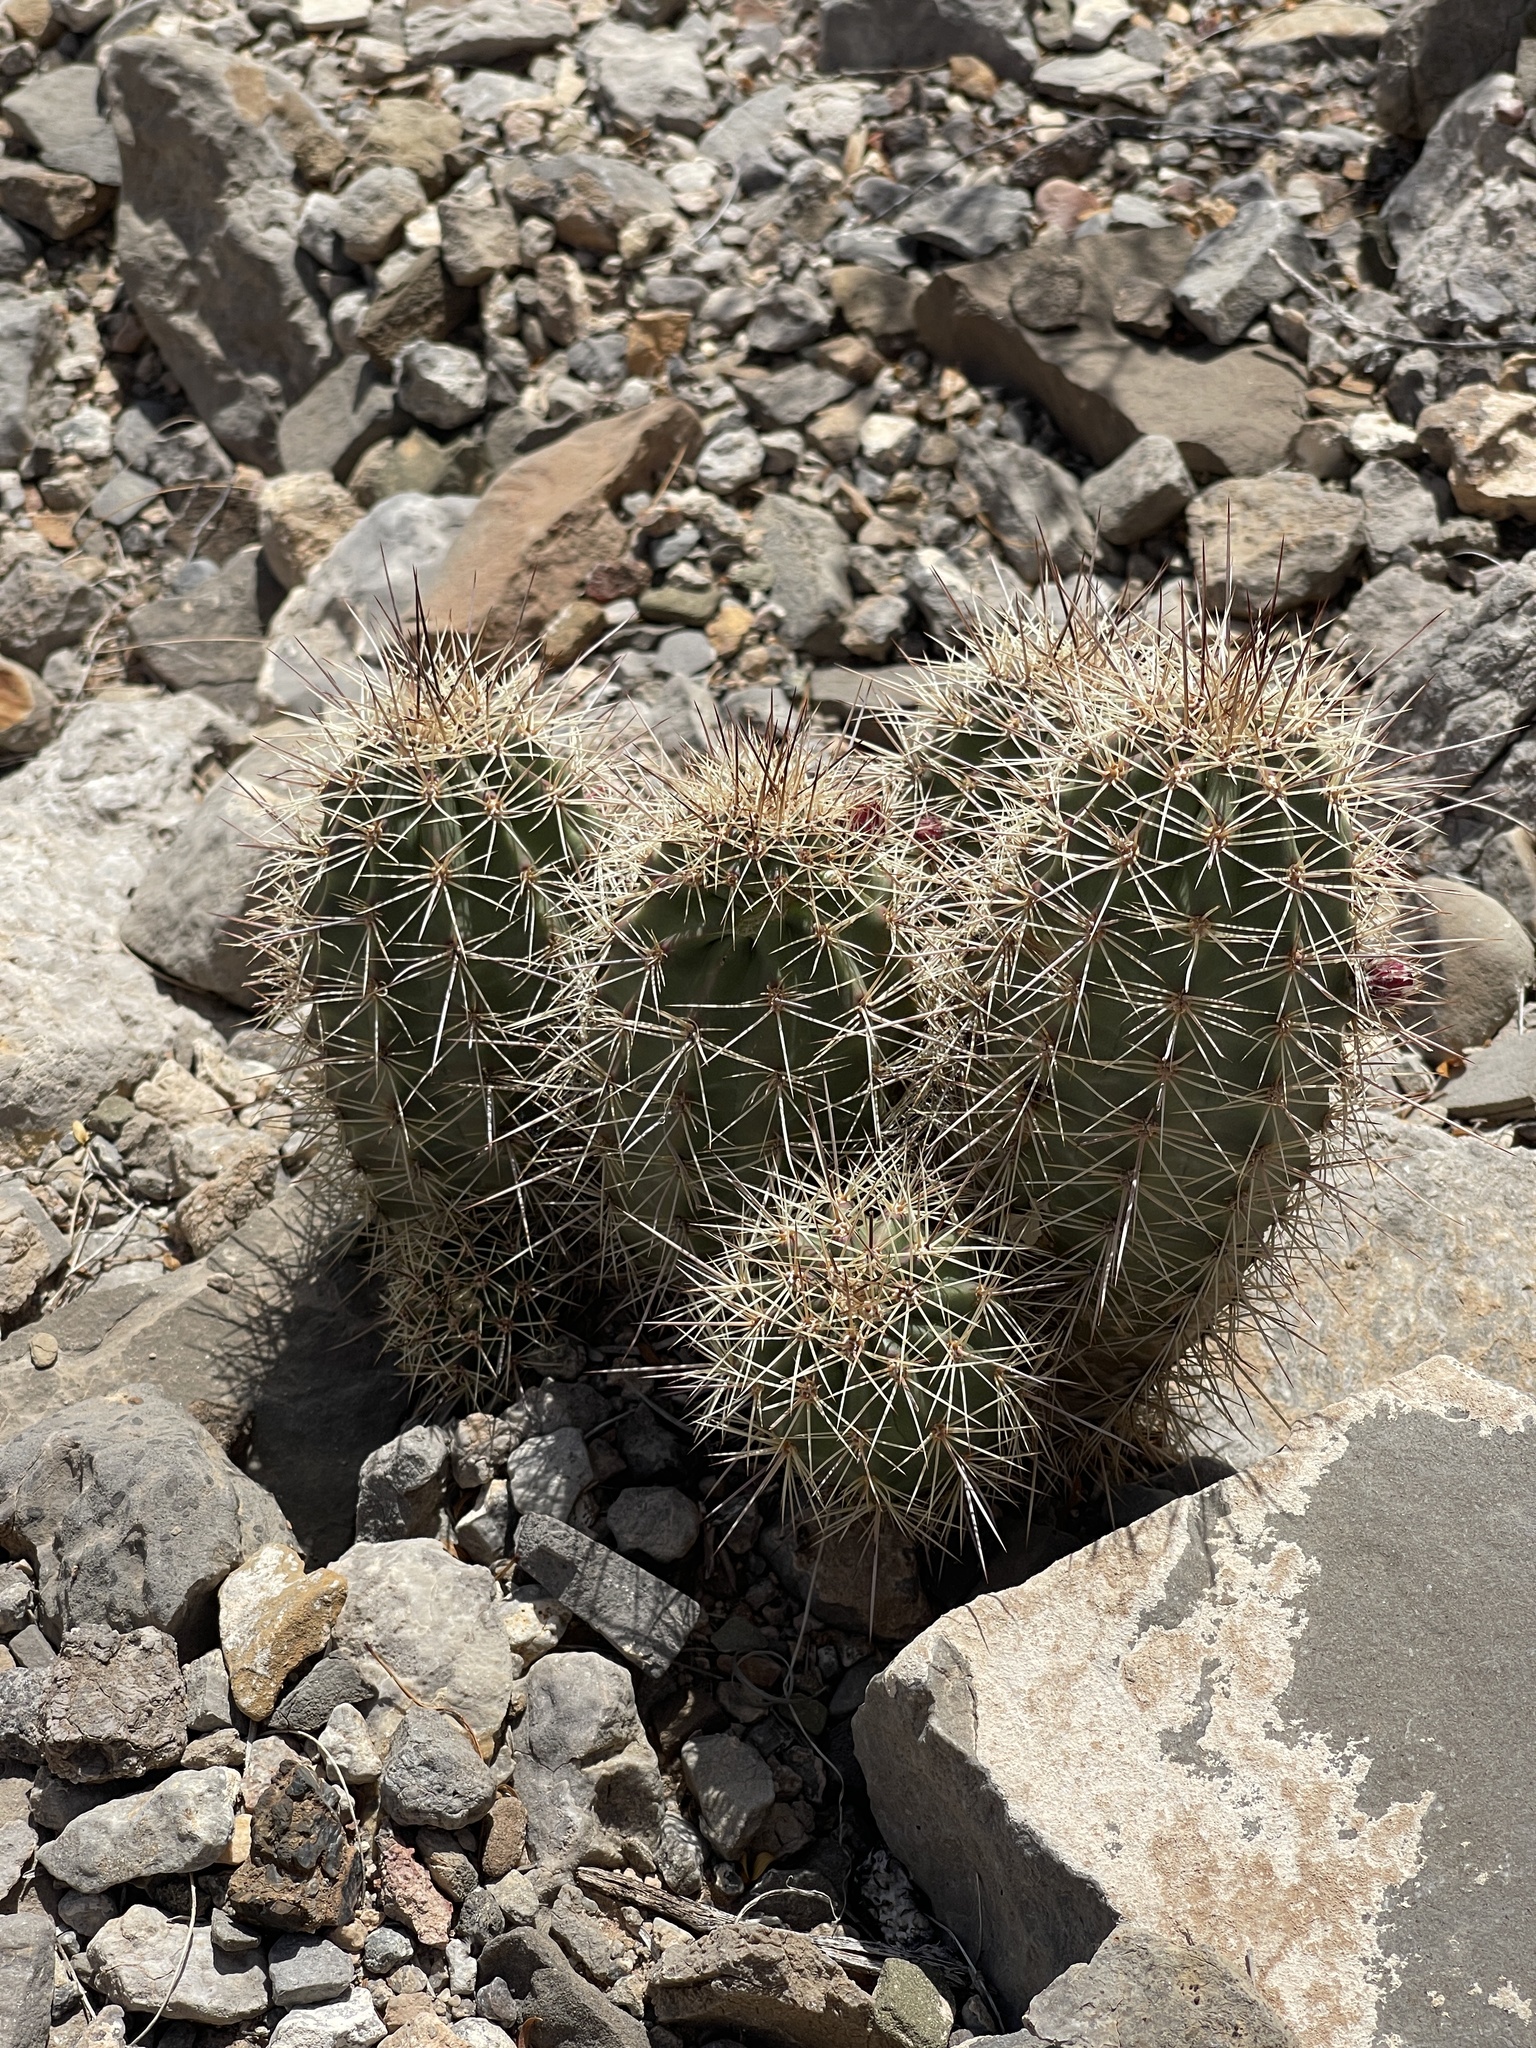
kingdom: Plantae
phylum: Tracheophyta
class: Magnoliopsida
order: Caryophyllales
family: Cactaceae
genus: Echinocereus
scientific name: Echinocereus coccineus
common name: Scarlet hedgehog cactus
